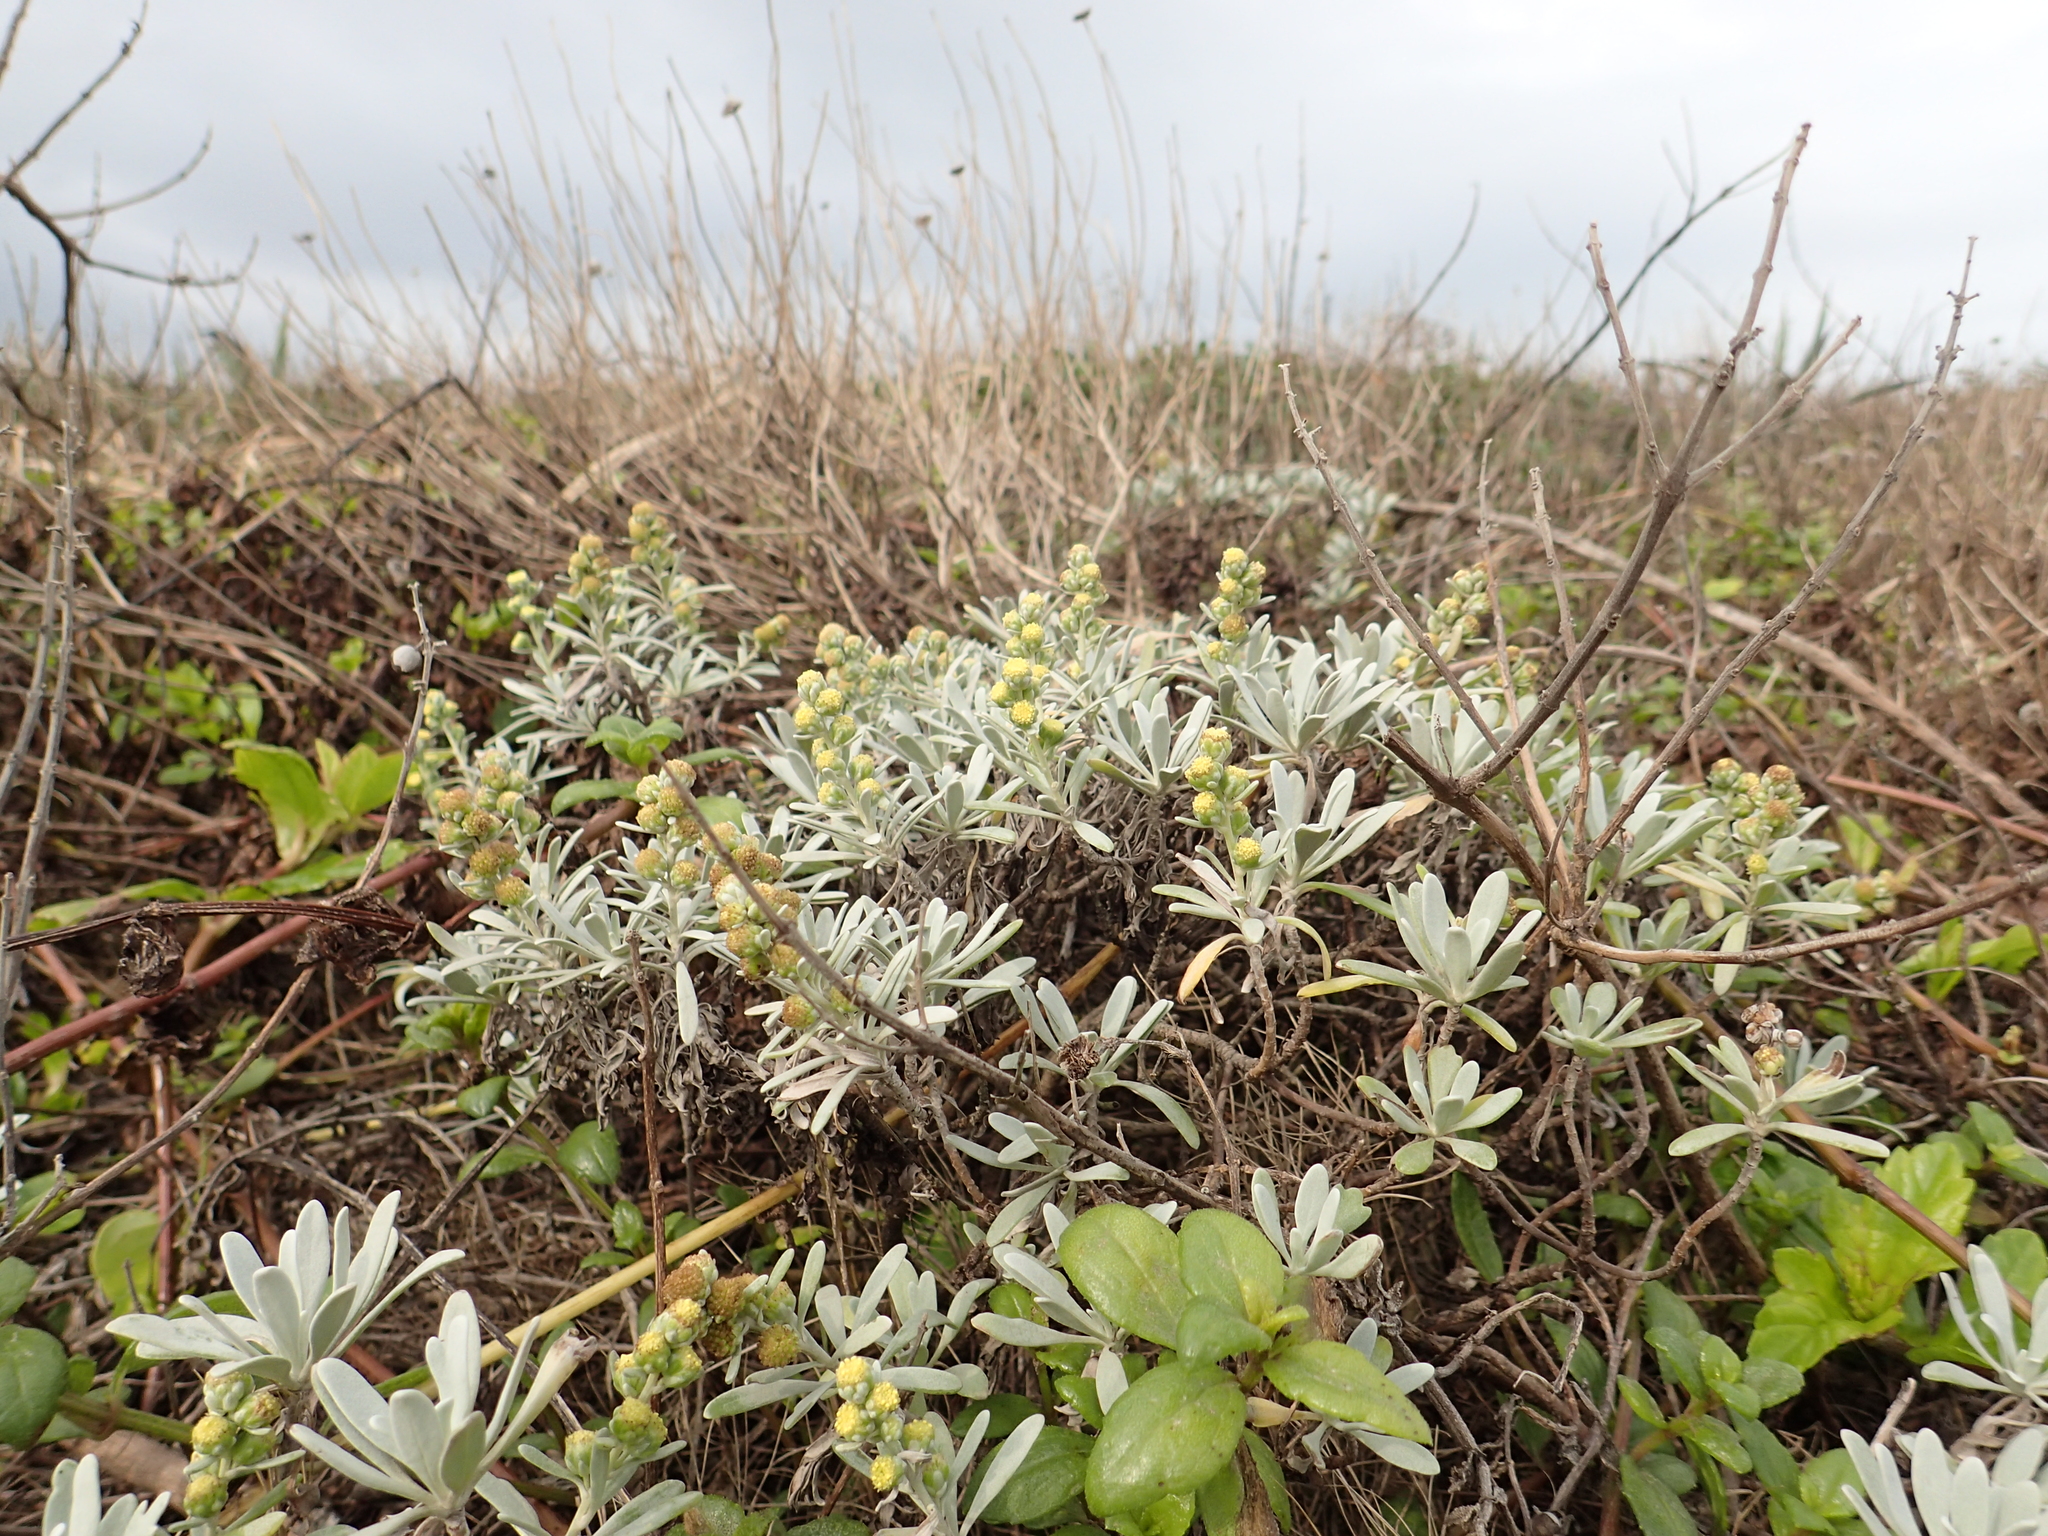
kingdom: Plantae
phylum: Tracheophyta
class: Magnoliopsida
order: Asterales
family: Asteraceae
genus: Crossostephium
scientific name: Crossostephium chinense
